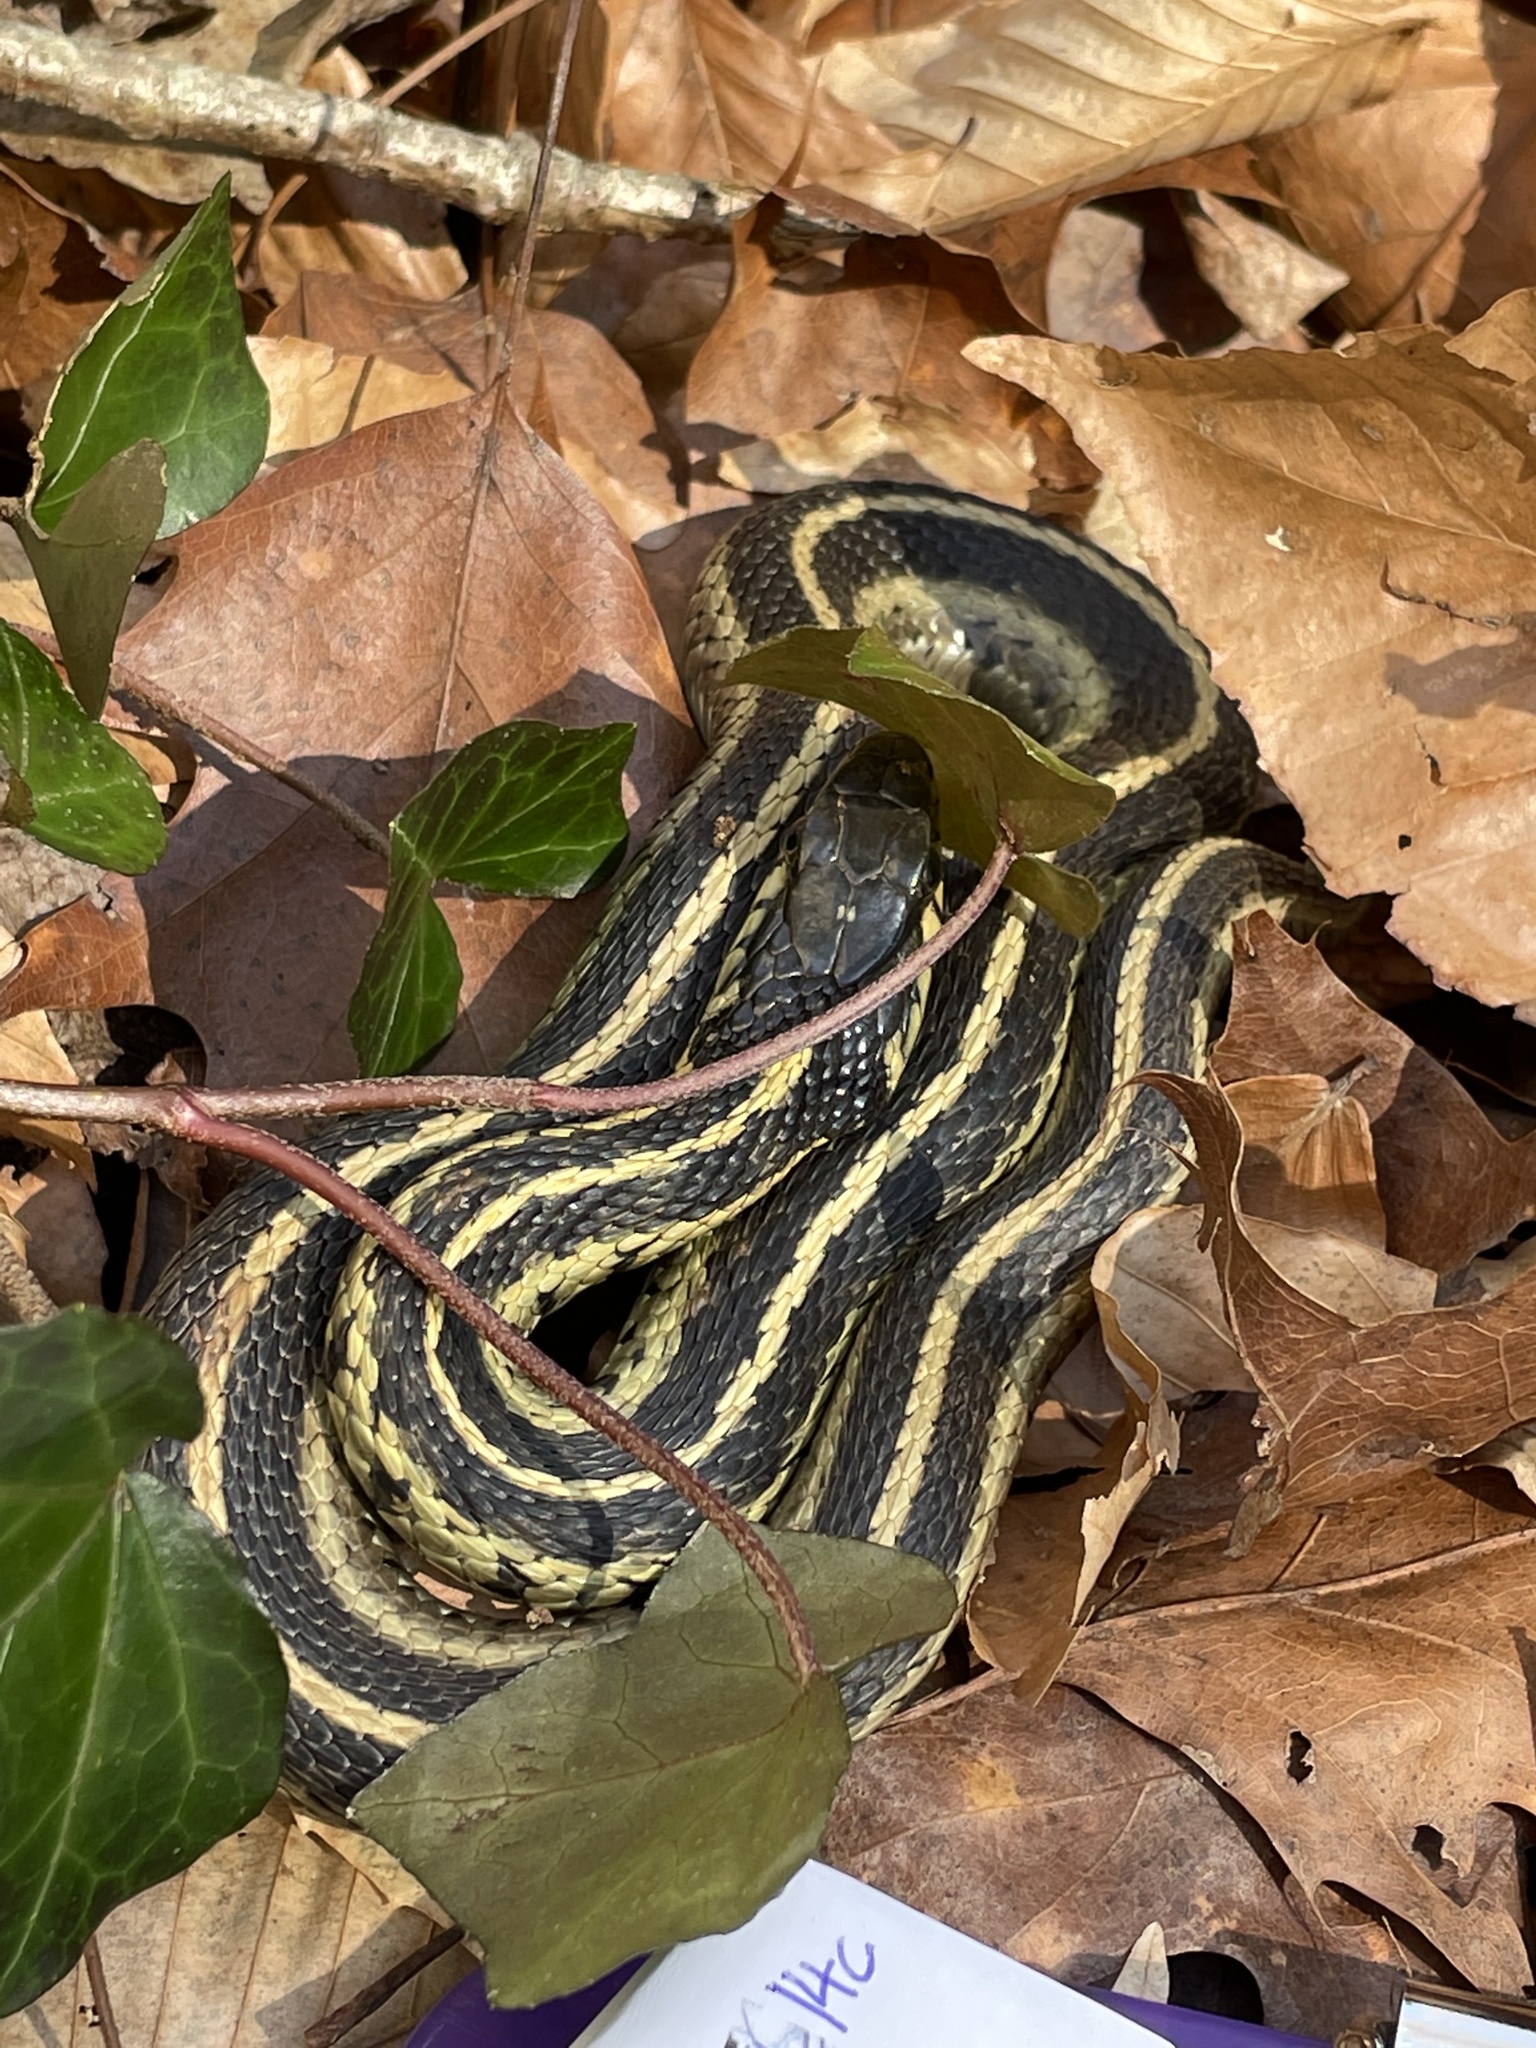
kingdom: Animalia
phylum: Chordata
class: Squamata
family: Colubridae
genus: Thamnophis
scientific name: Thamnophis sirtalis
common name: Common garter snake
